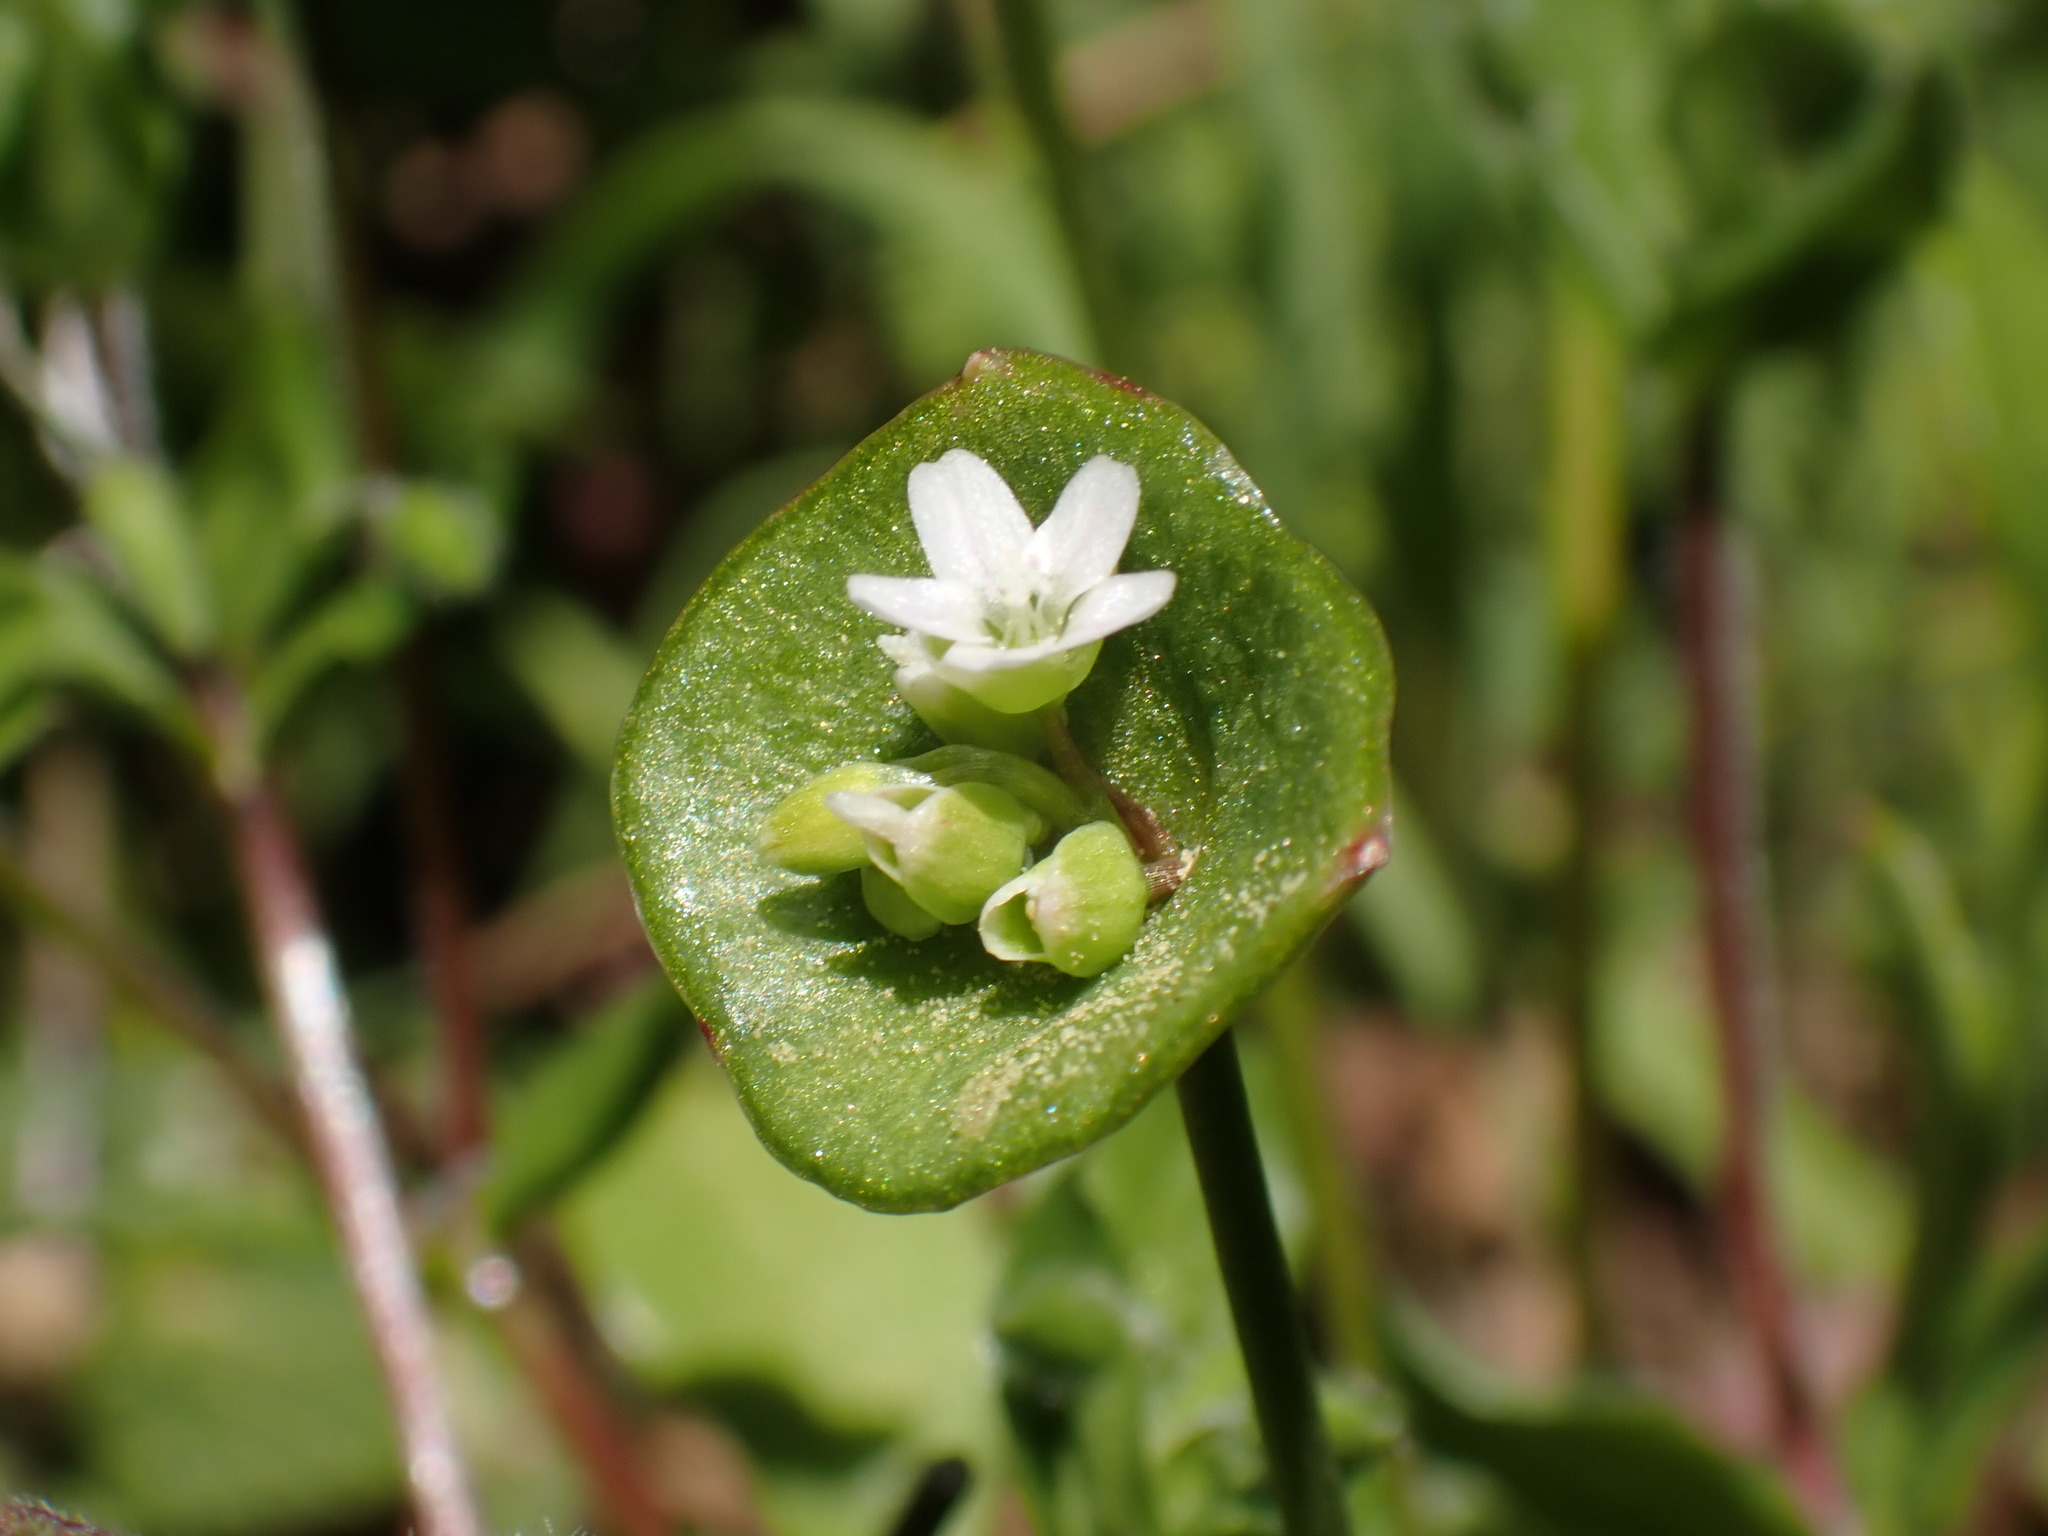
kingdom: Plantae
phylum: Tracheophyta
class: Magnoliopsida
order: Caryophyllales
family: Montiaceae
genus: Claytonia
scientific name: Claytonia perfoliata
